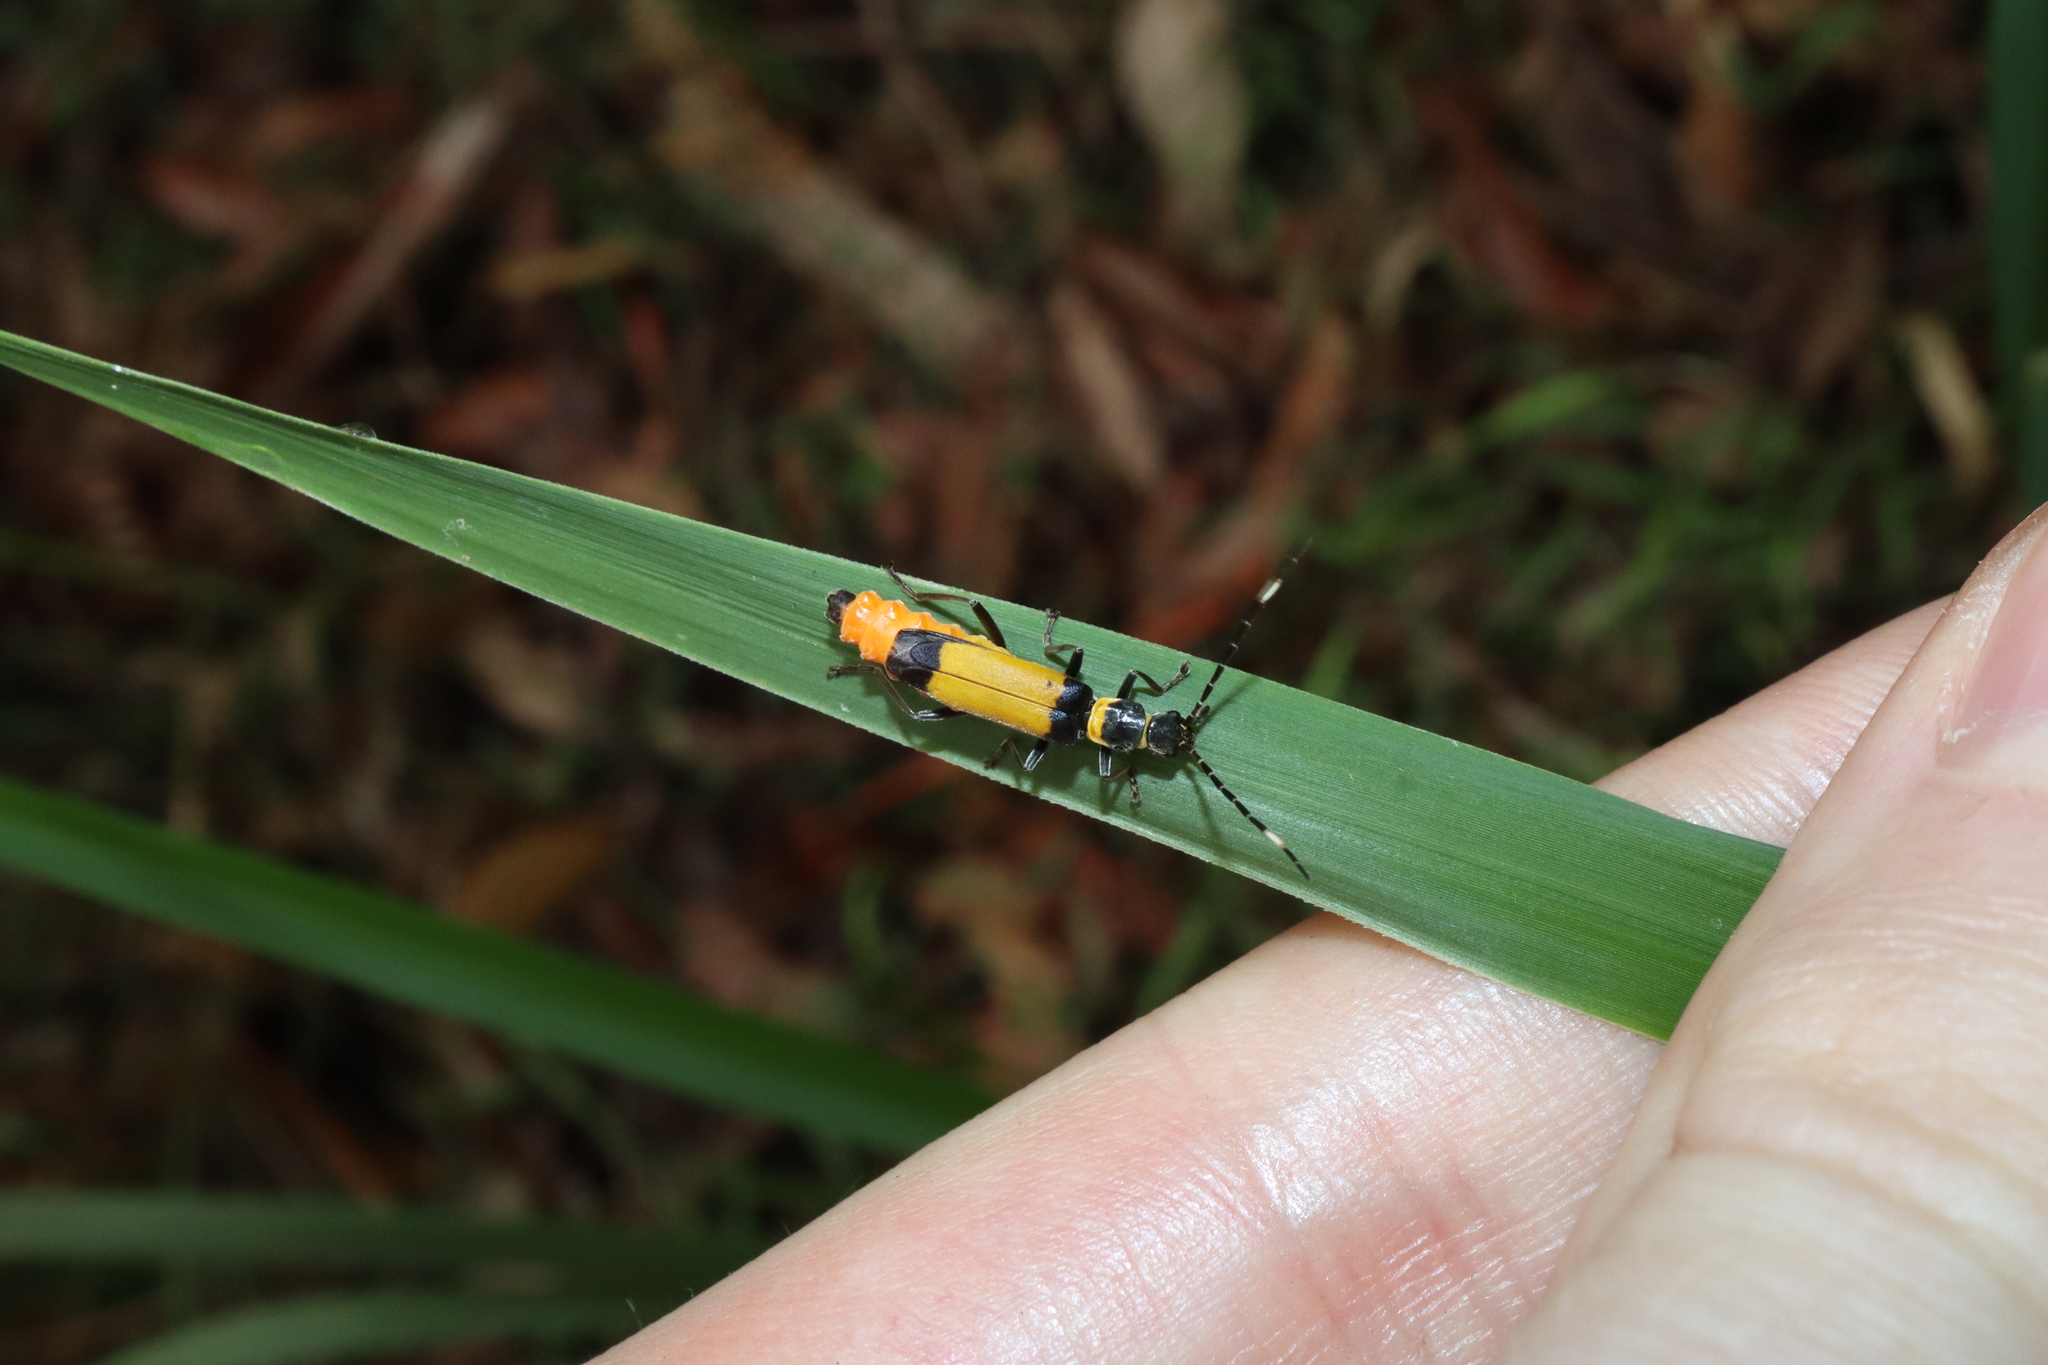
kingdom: Animalia
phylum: Arthropoda
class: Insecta
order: Coleoptera
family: Cantharidae
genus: Chauliognathus
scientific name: Chauliognathus
